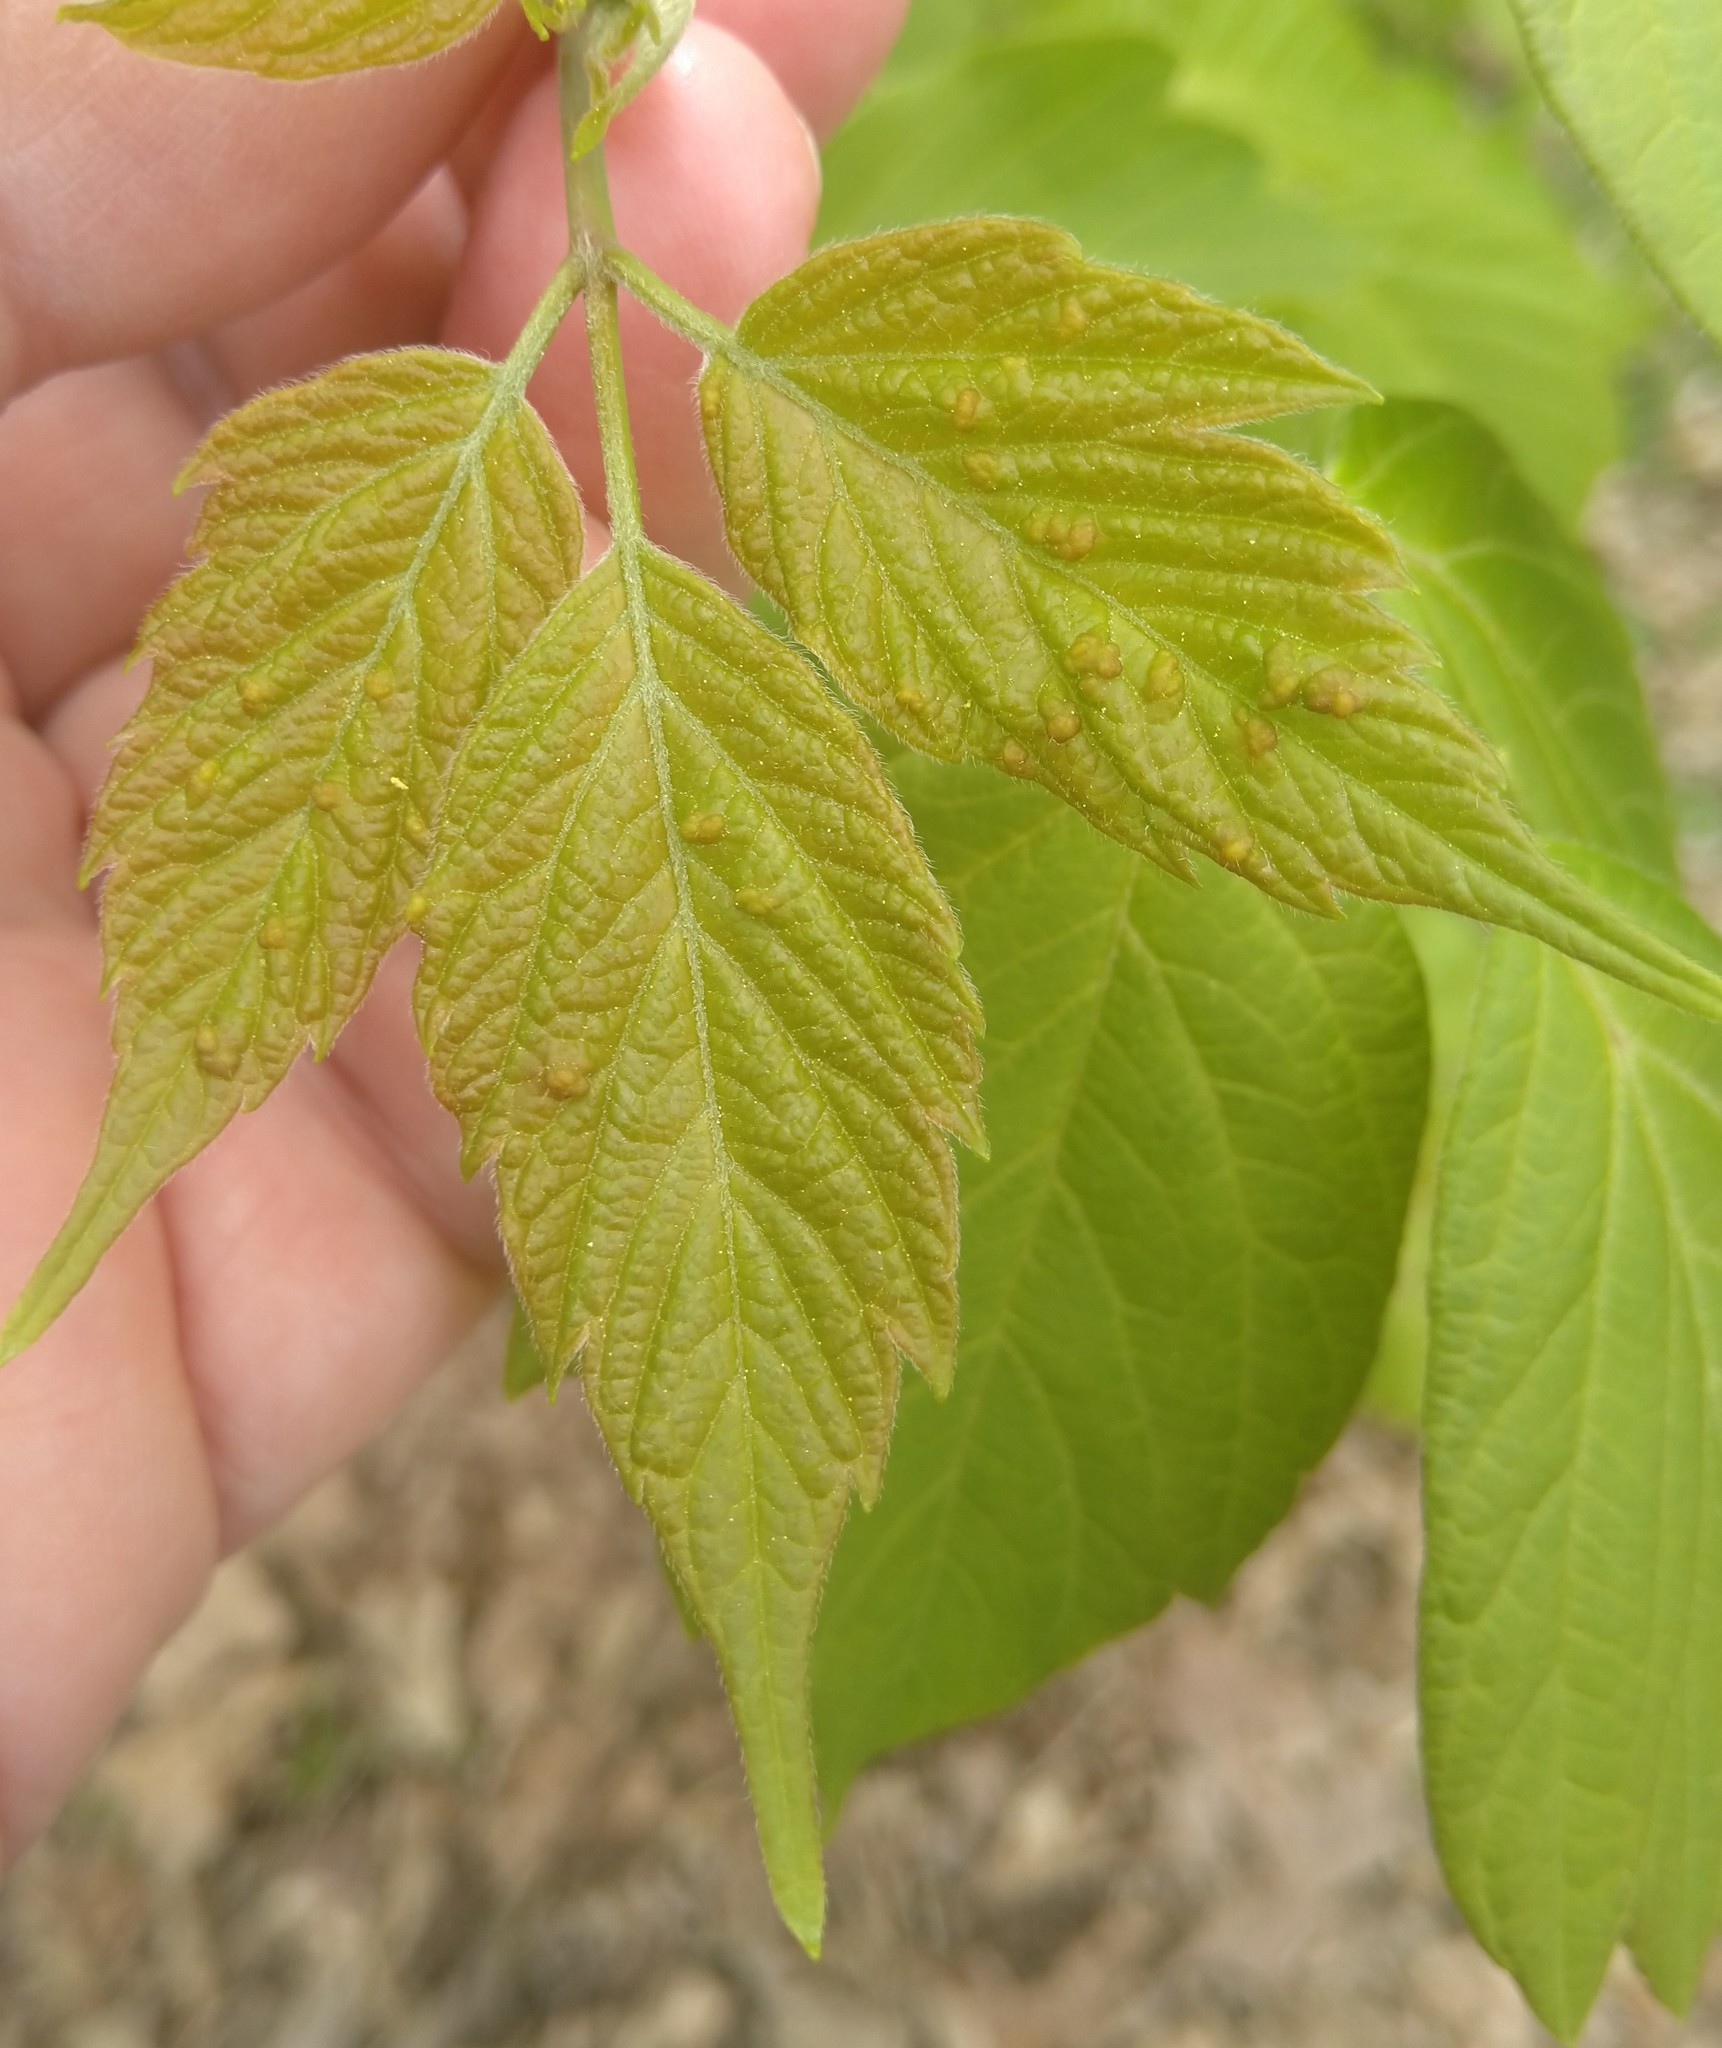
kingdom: Animalia
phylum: Arthropoda
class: Arachnida
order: Trombidiformes
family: Eriophyidae
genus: Aceria
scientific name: Aceria
